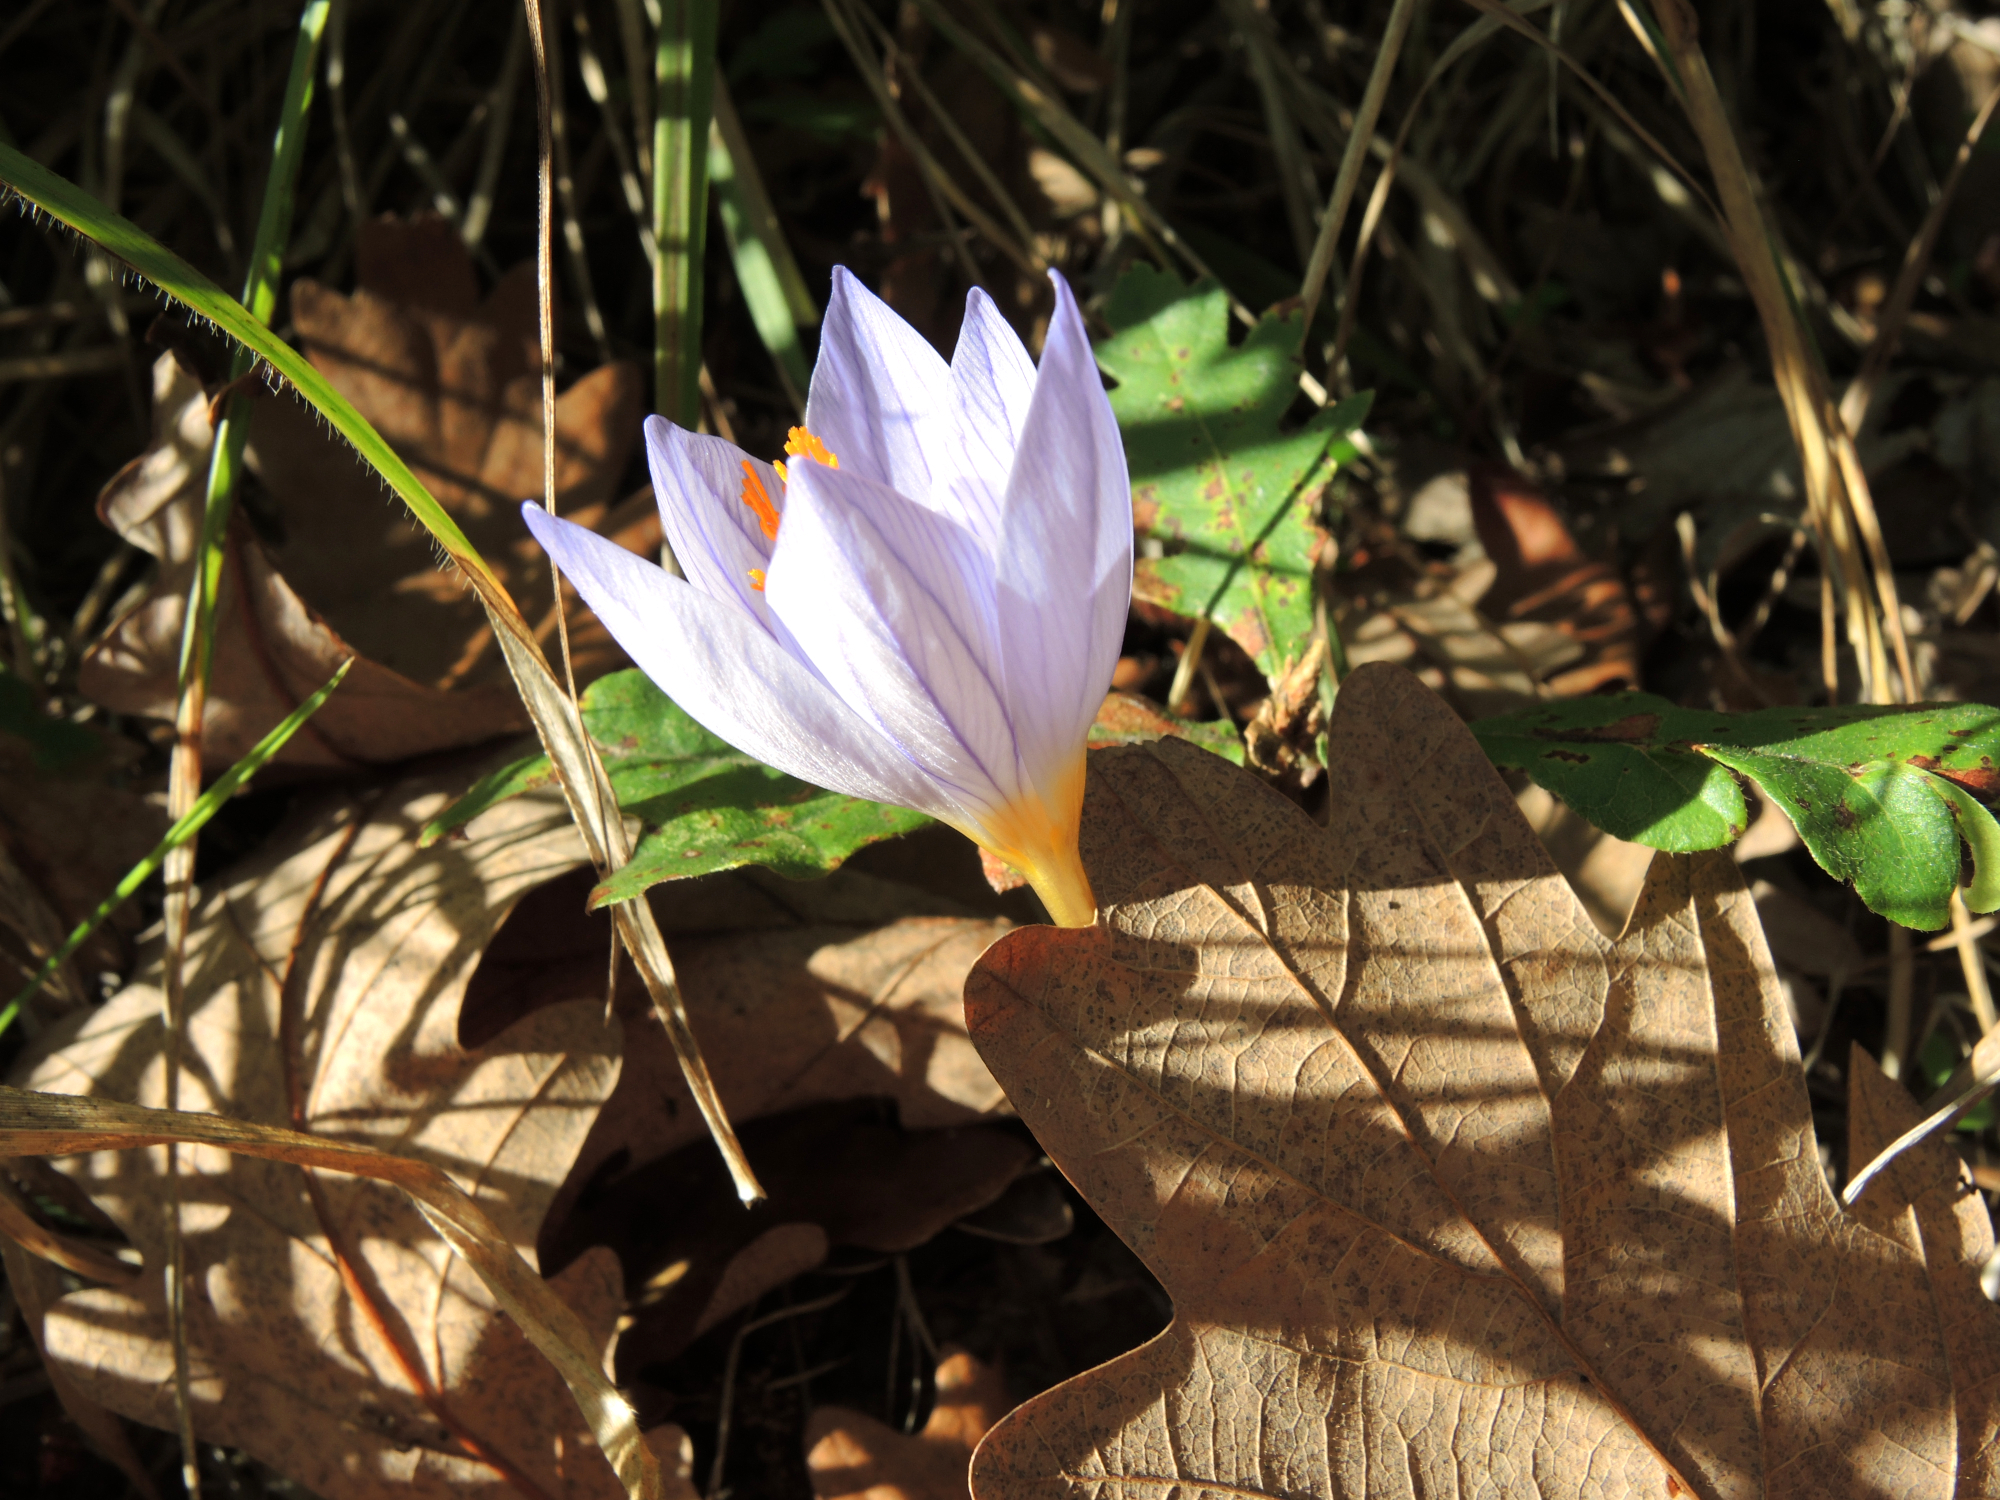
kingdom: Plantae
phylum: Tracheophyta
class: Liliopsida
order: Asparagales
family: Iridaceae
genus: Crocus
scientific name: Crocus ibrahimii
